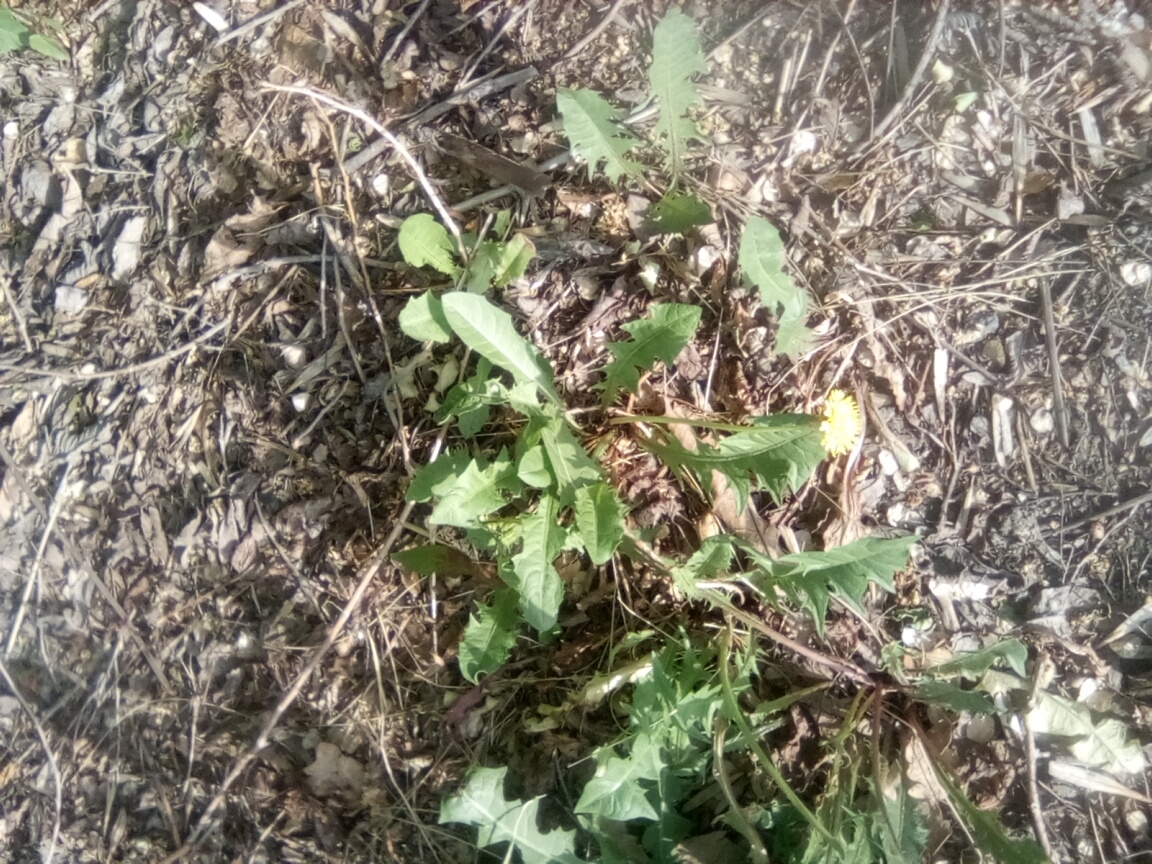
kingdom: Plantae
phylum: Tracheophyta
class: Magnoliopsida
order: Asterales
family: Asteraceae
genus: Taraxacum
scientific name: Taraxacum officinale
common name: Common dandelion
